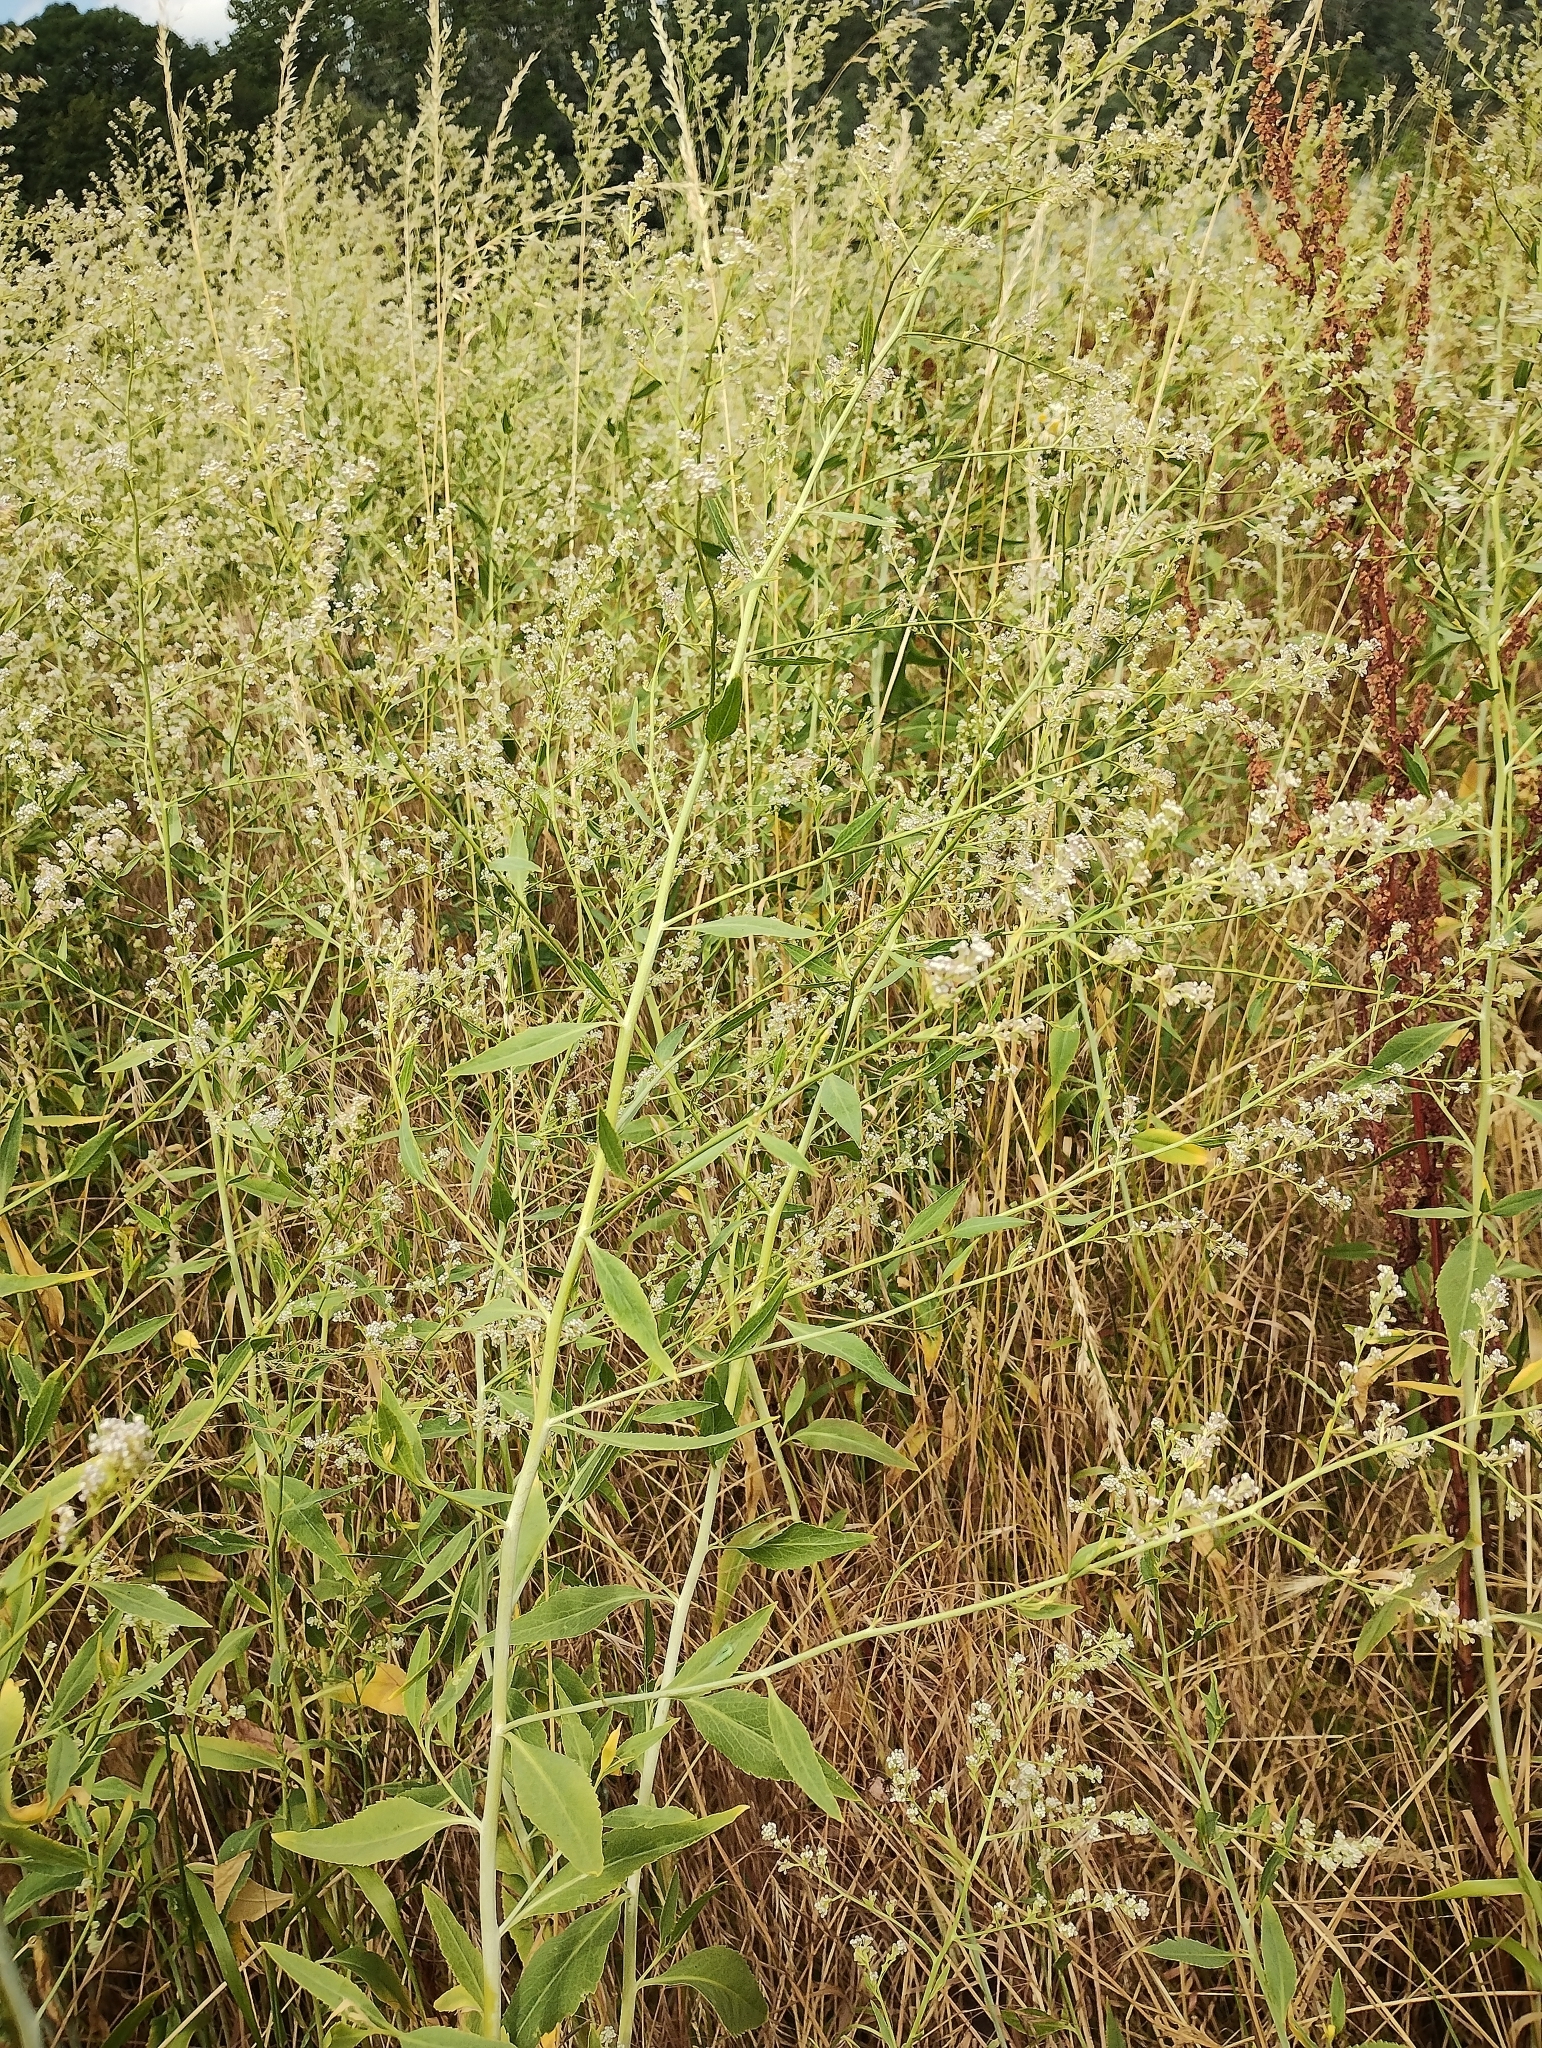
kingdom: Plantae
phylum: Tracheophyta
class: Magnoliopsida
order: Brassicales
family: Brassicaceae
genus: Lepidium
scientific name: Lepidium latifolium
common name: Dittander
